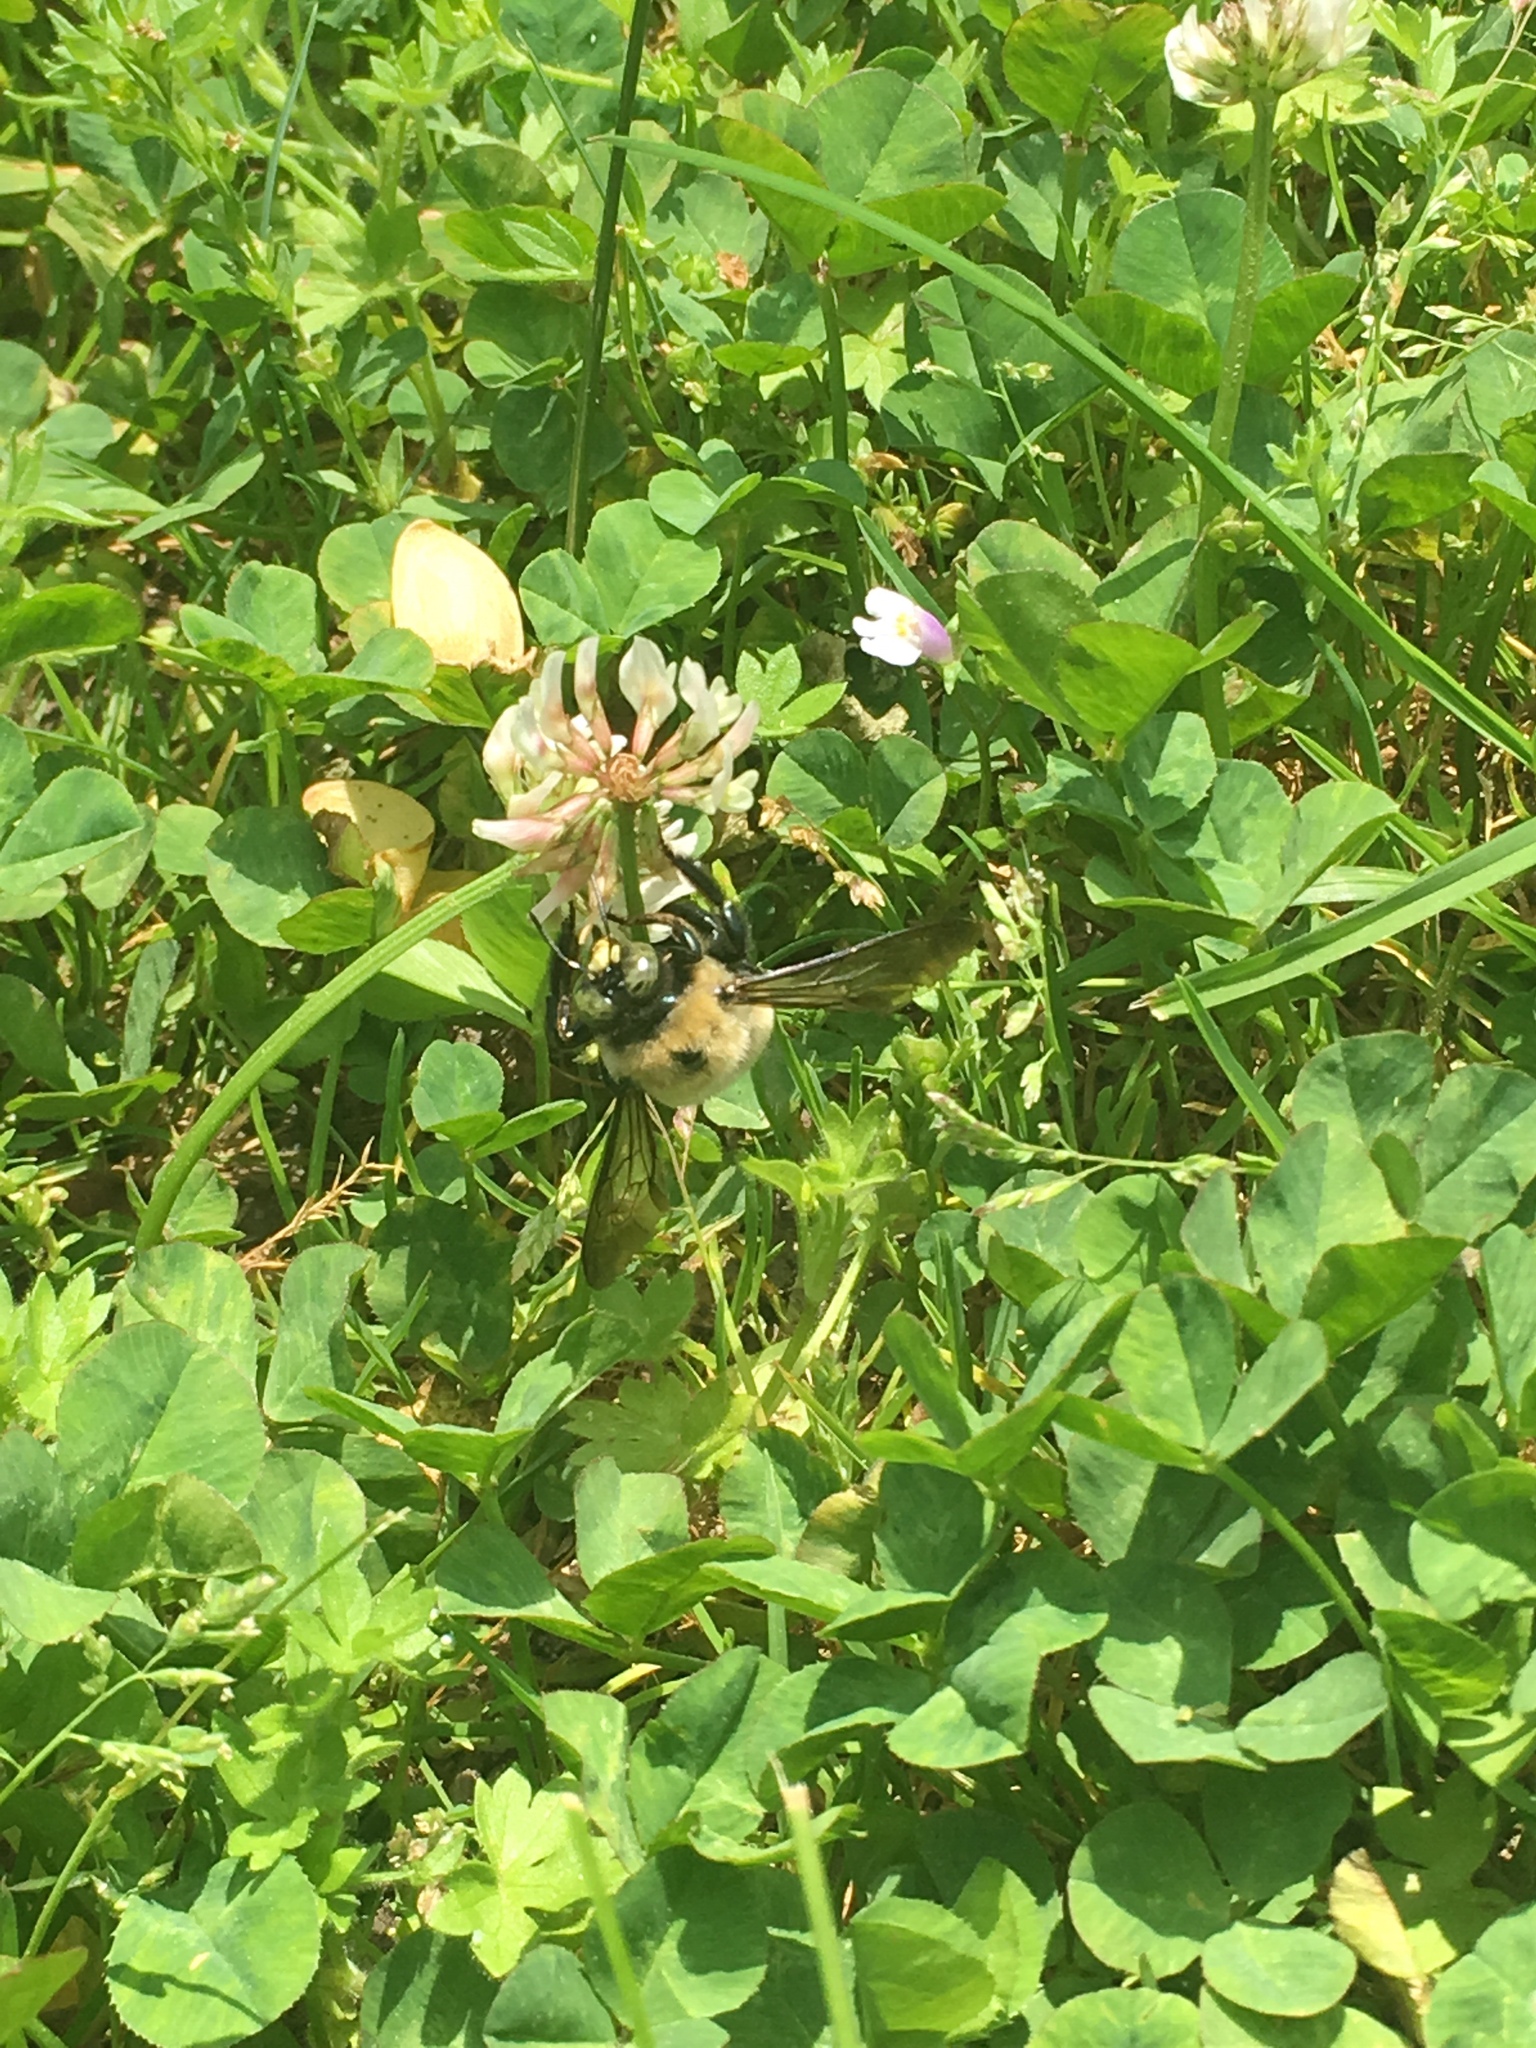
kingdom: Animalia
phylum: Arthropoda
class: Insecta
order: Hymenoptera
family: Apidae
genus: Xylocopa
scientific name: Xylocopa virginica
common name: Carpenter bee
